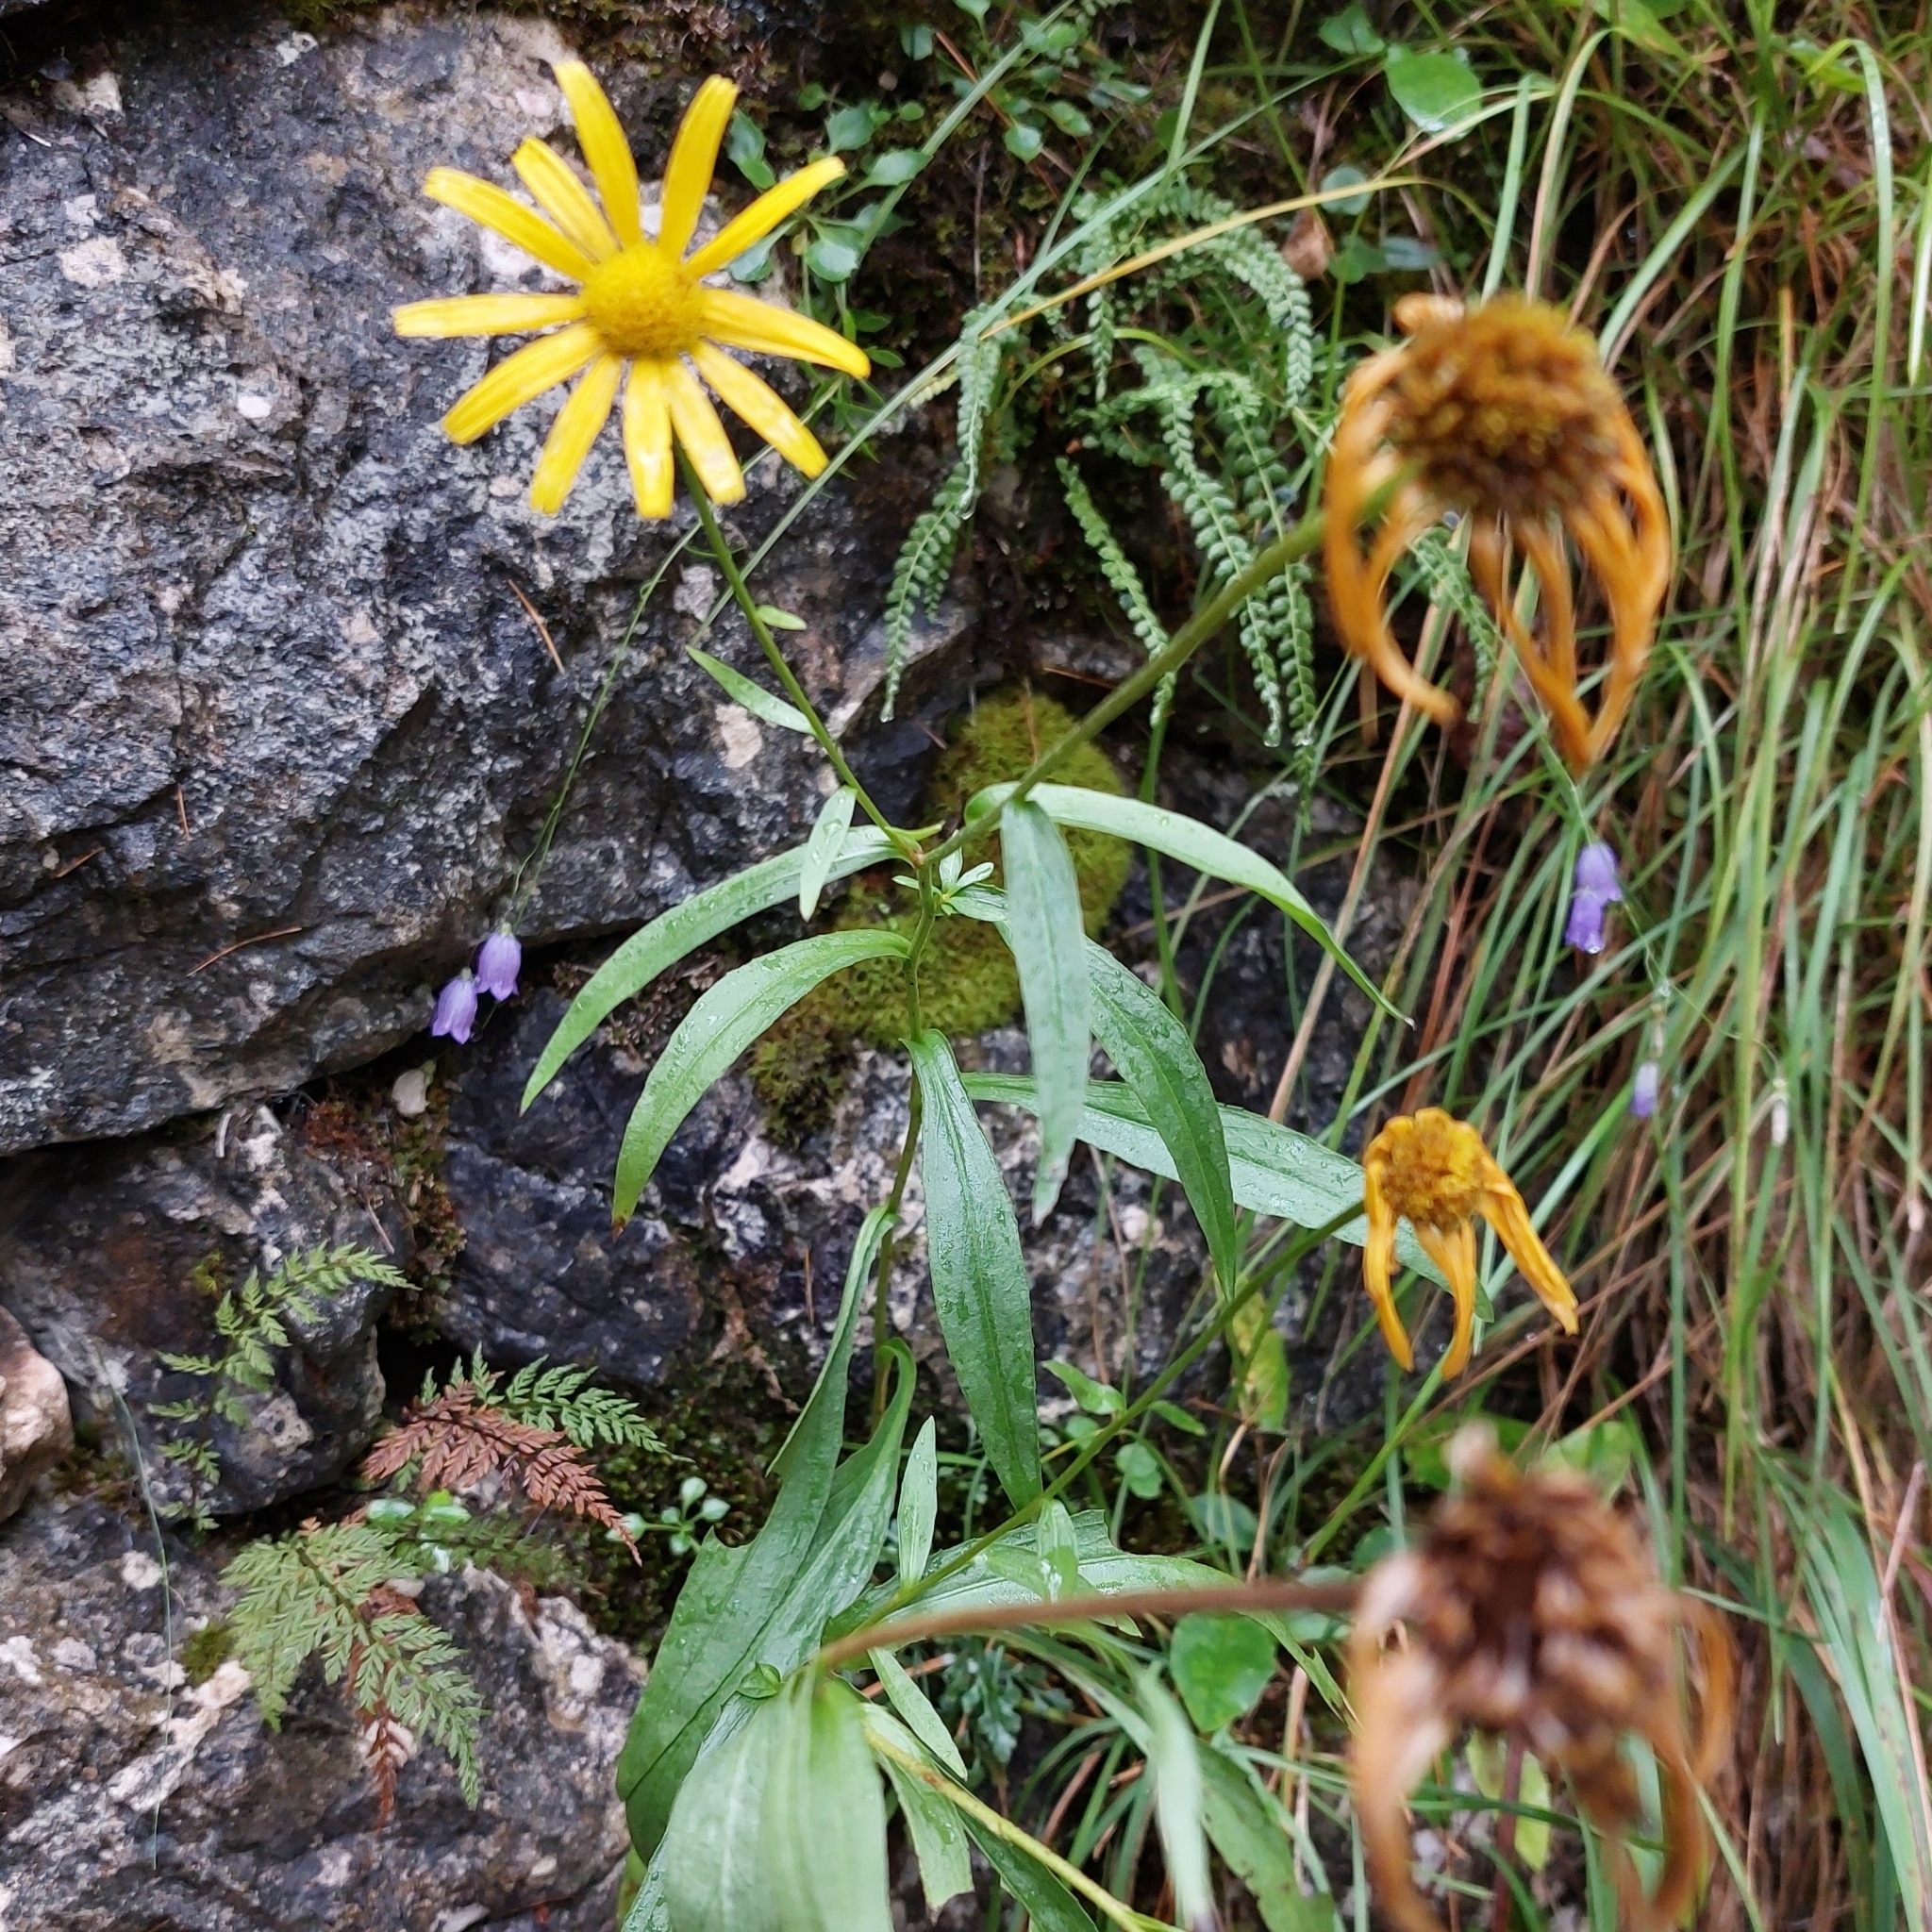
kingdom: Plantae
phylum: Tracheophyta
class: Magnoliopsida
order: Asterales
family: Asteraceae
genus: Buphthalmum
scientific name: Buphthalmum salicifolium
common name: Willow-leaved yellow-oxeye
